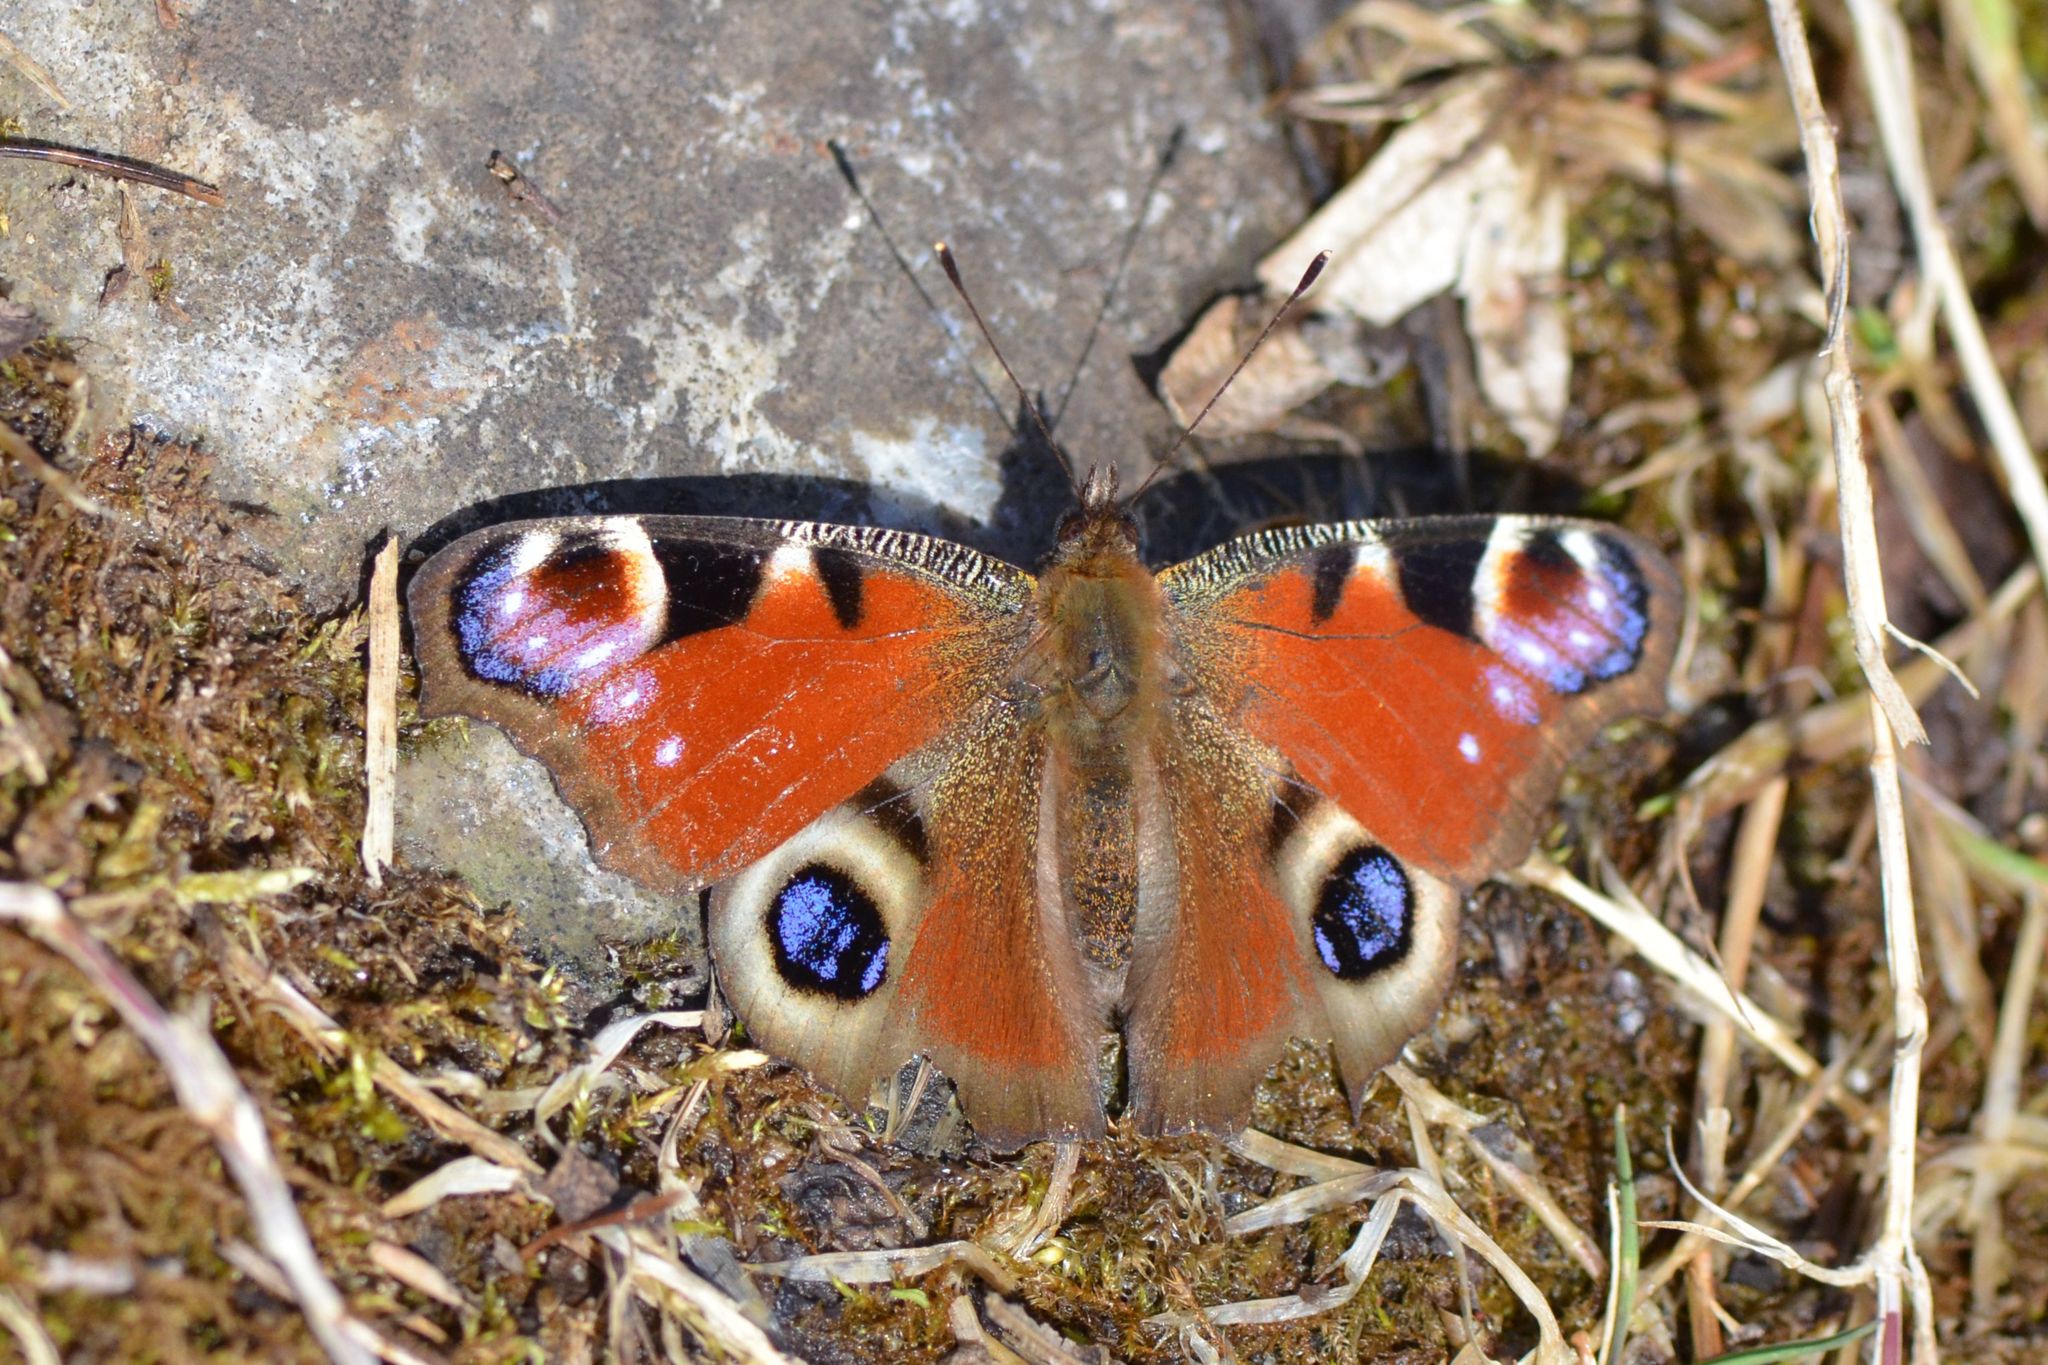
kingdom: Animalia
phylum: Arthropoda
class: Insecta
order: Lepidoptera
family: Nymphalidae
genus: Aglais
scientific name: Aglais io
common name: Peacock
